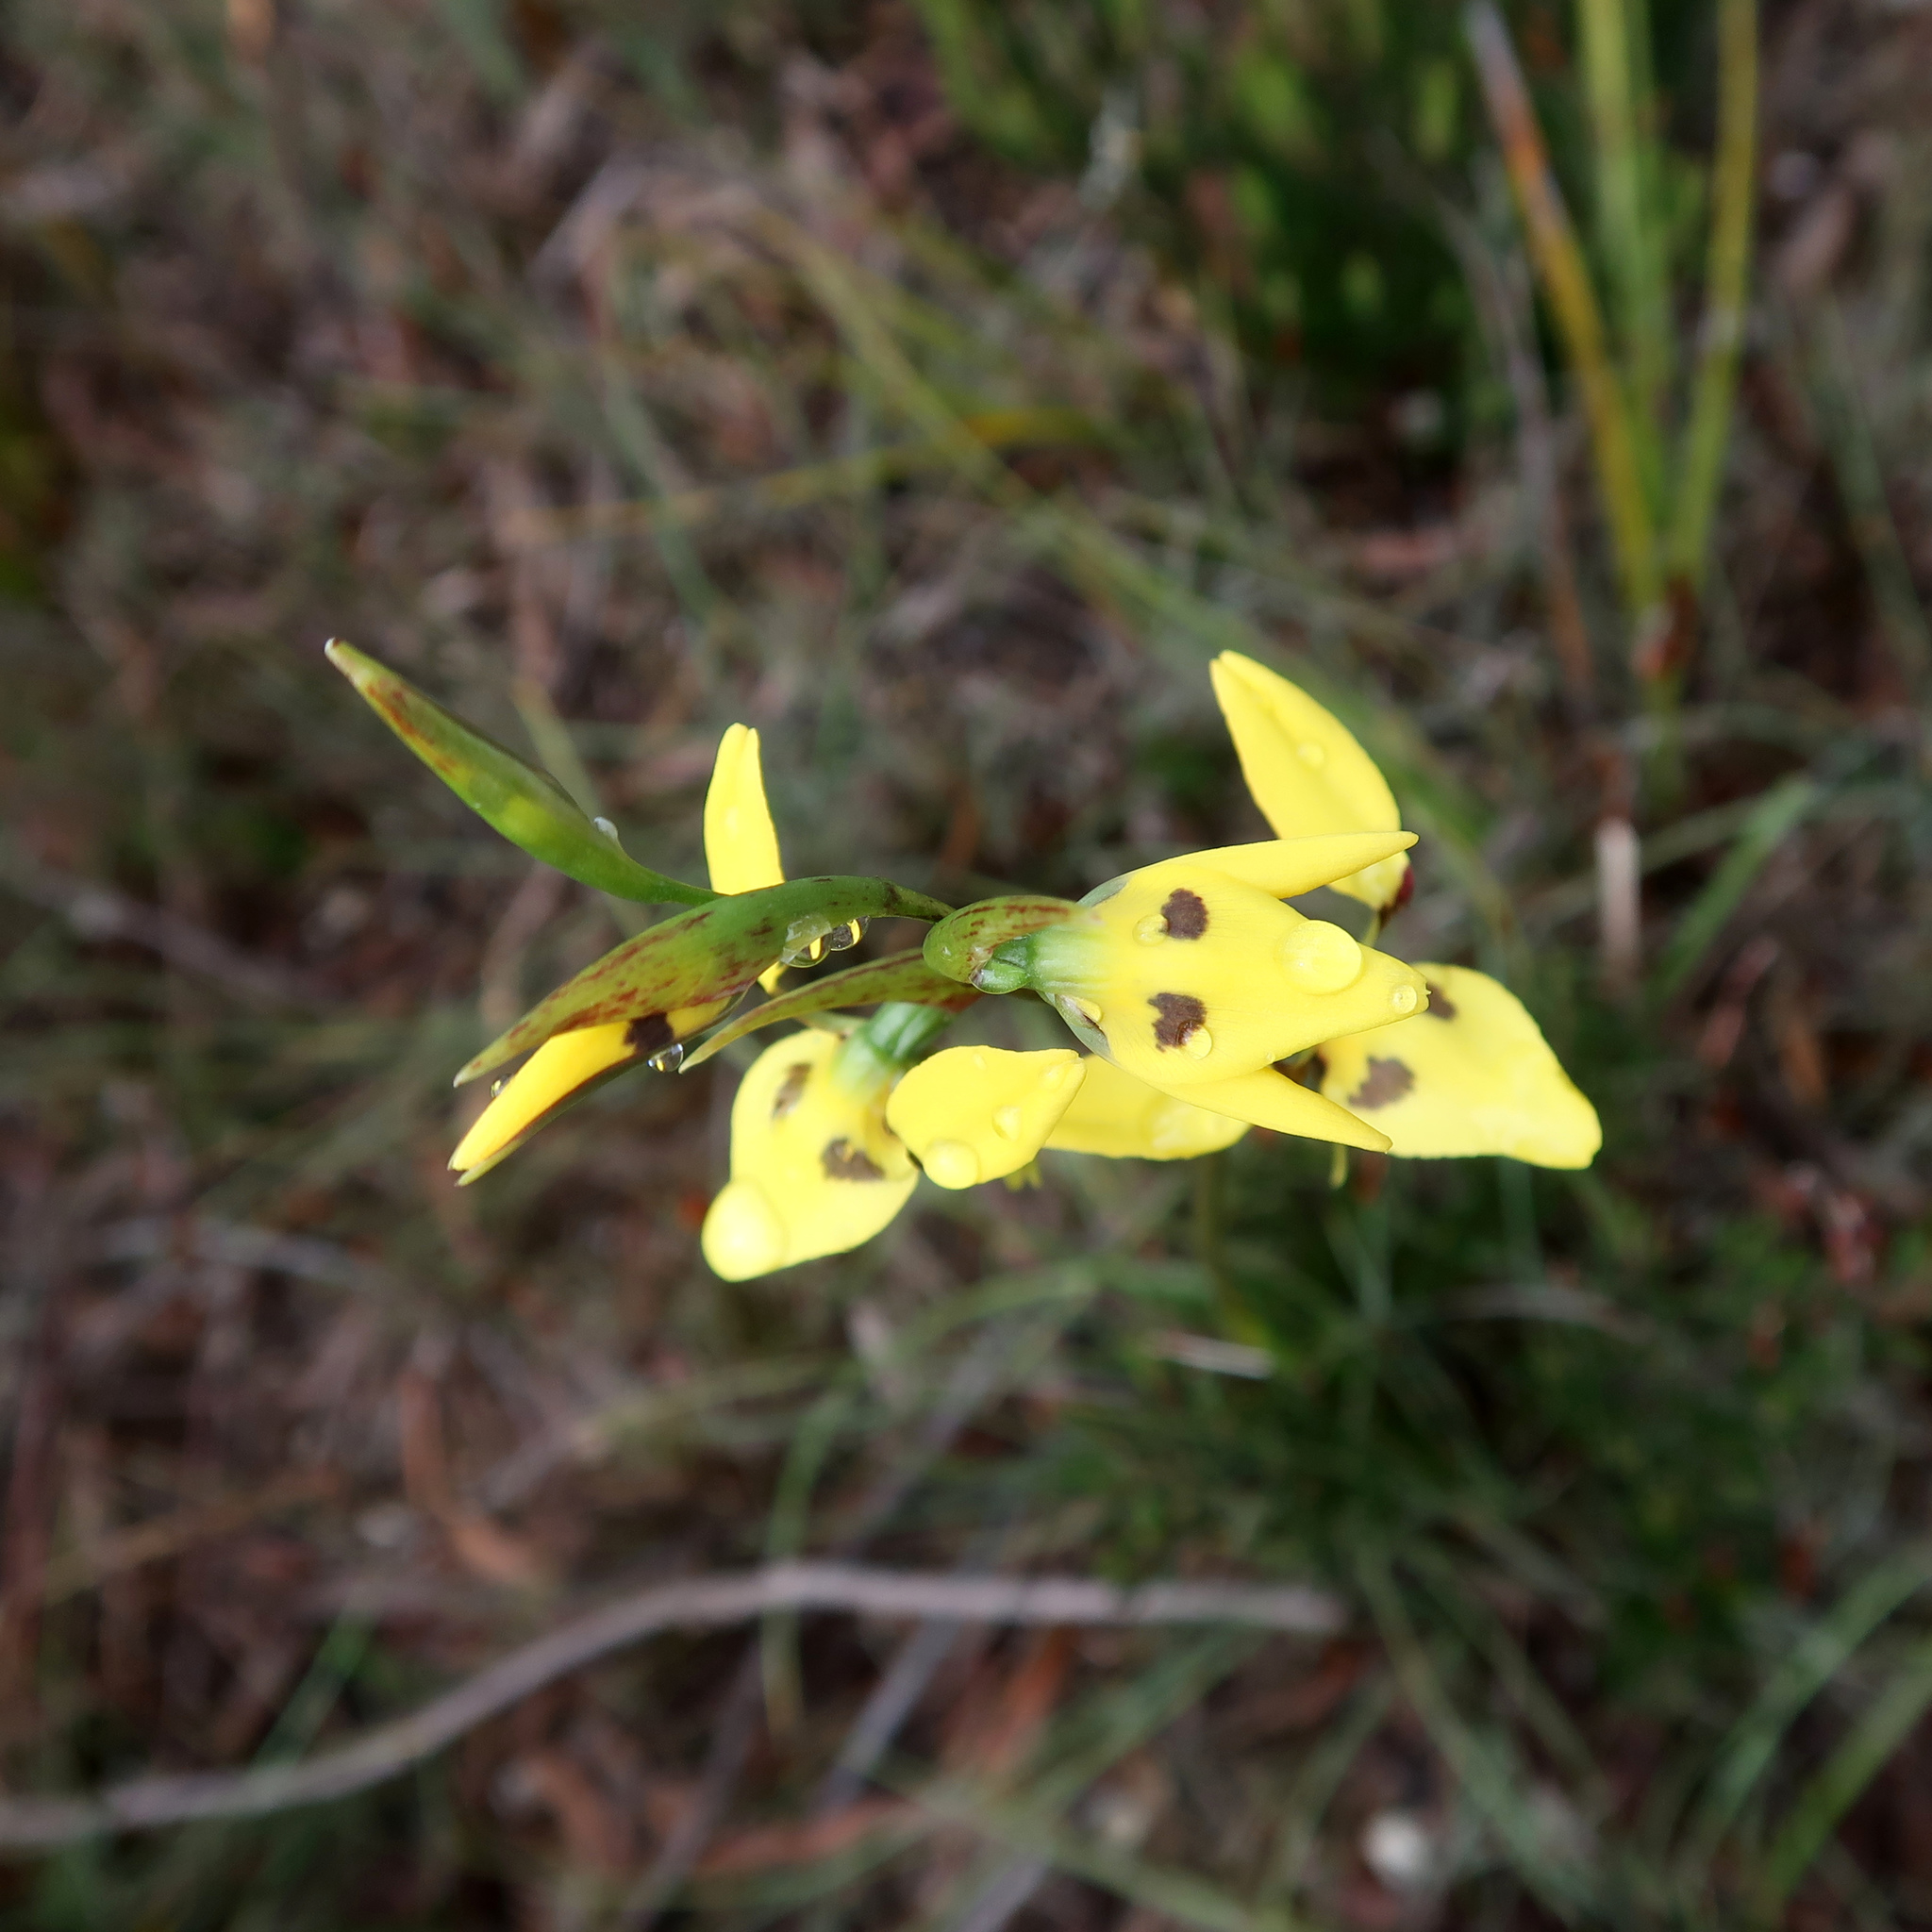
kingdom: Plantae
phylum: Tracheophyta
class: Liliopsida
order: Asparagales
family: Orchidaceae
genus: Diuris
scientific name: Diuris sulphurea
